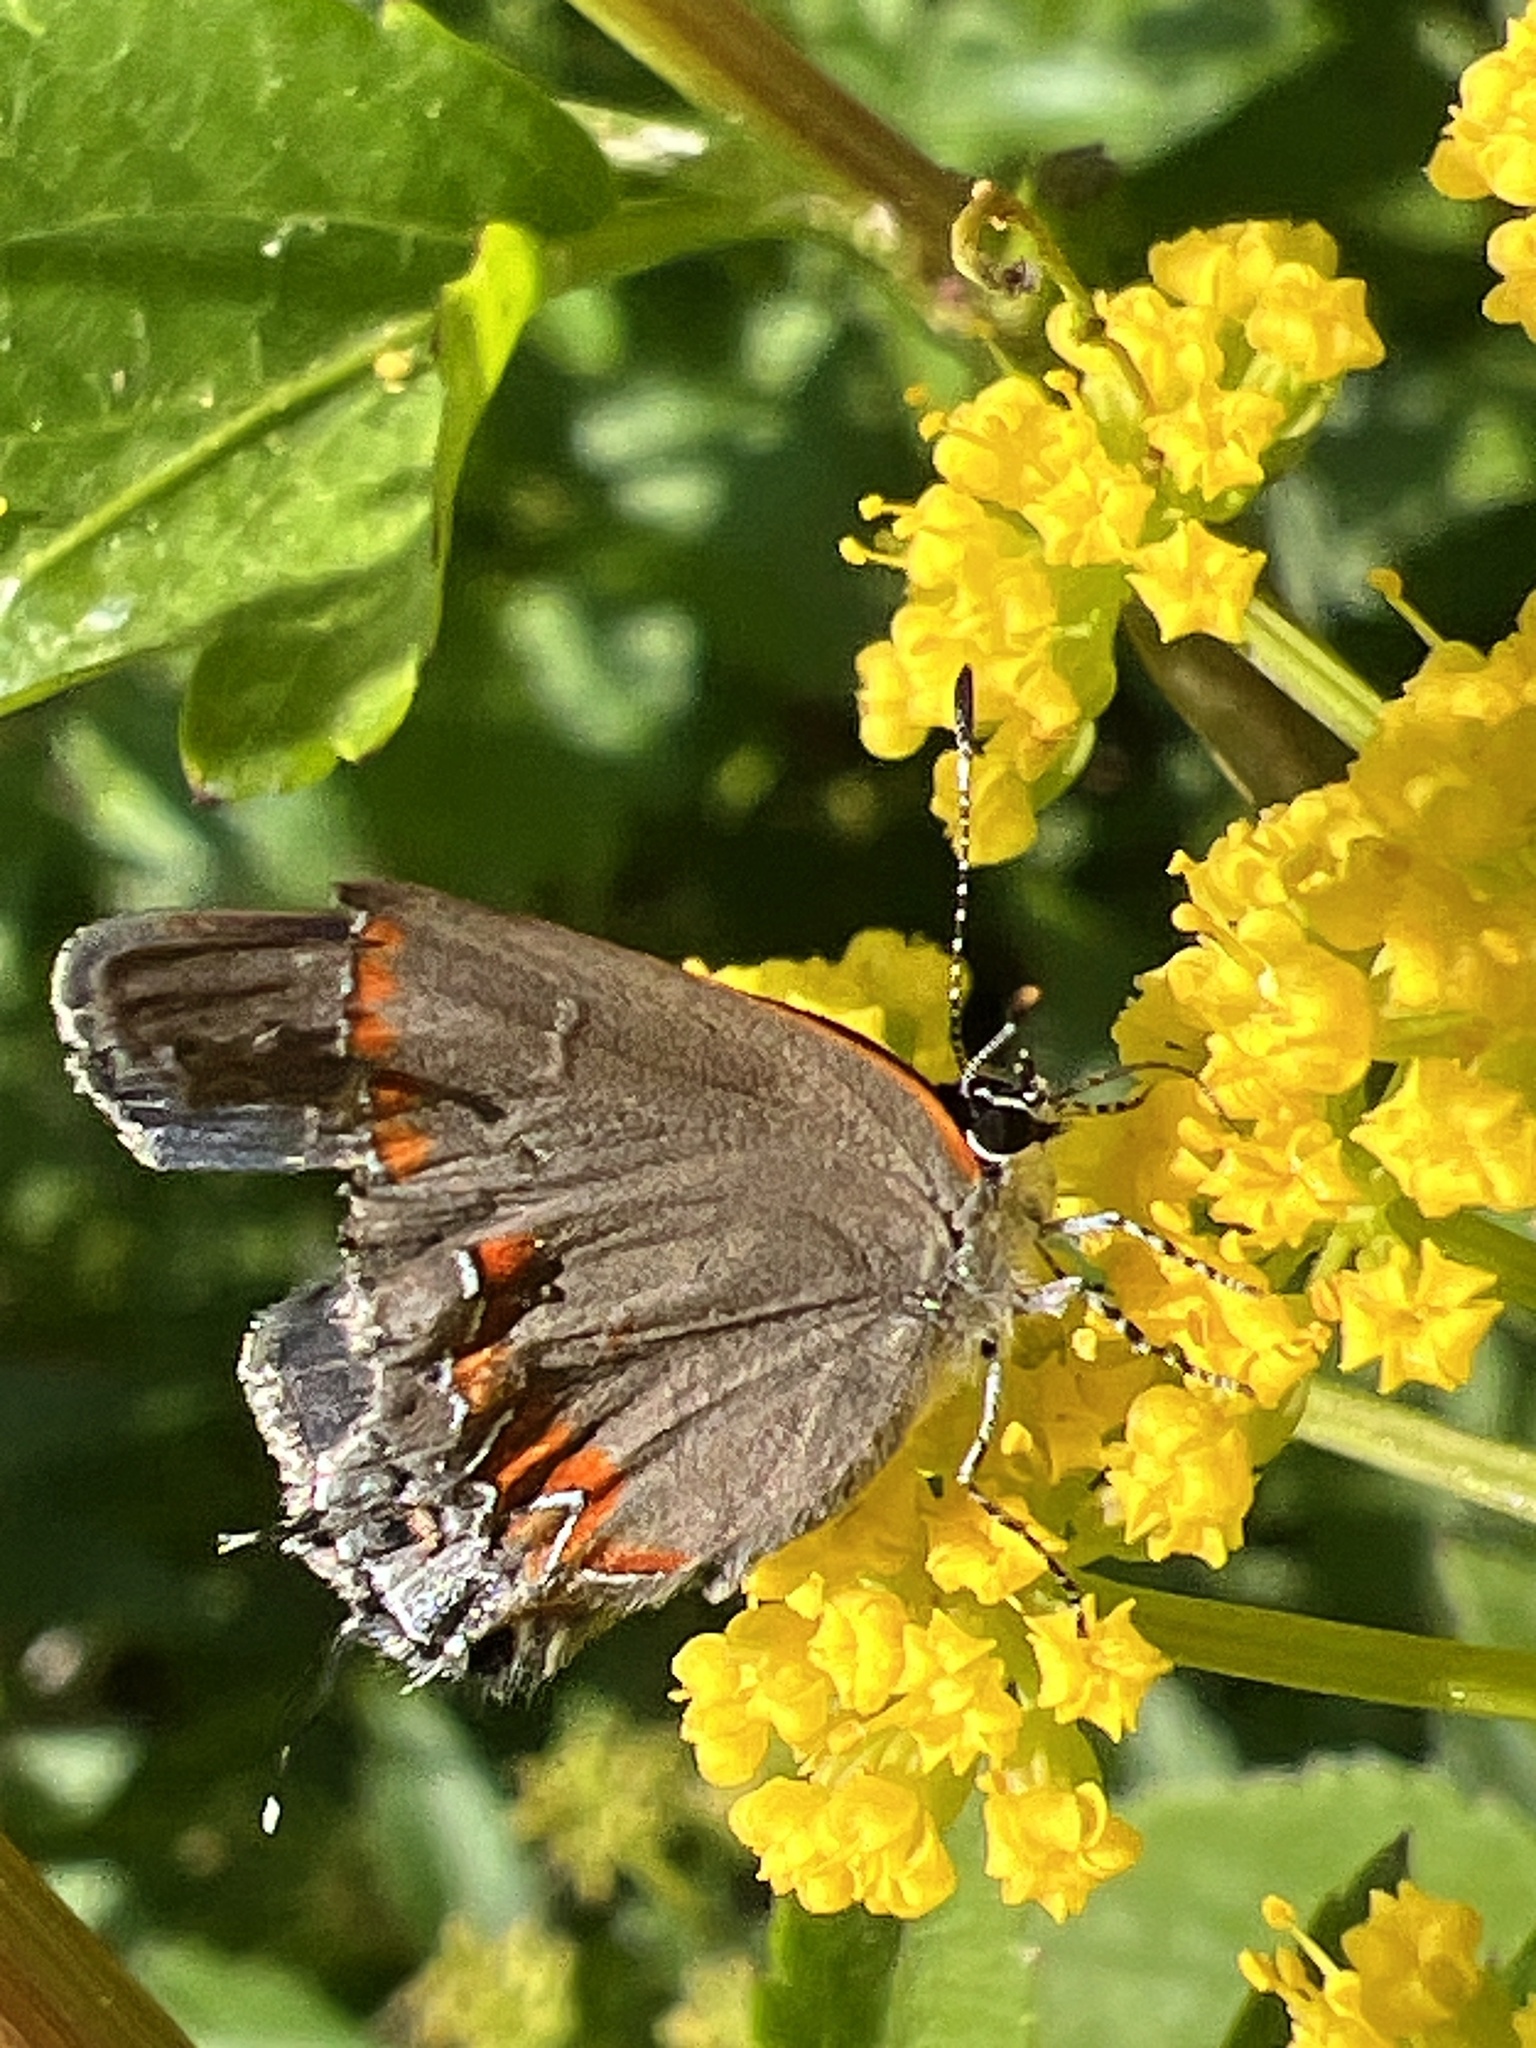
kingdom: Animalia
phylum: Arthropoda
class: Insecta
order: Lepidoptera
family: Lycaenidae
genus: Calycopis
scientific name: Calycopis cecrops
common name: Red-banded hairstreak
